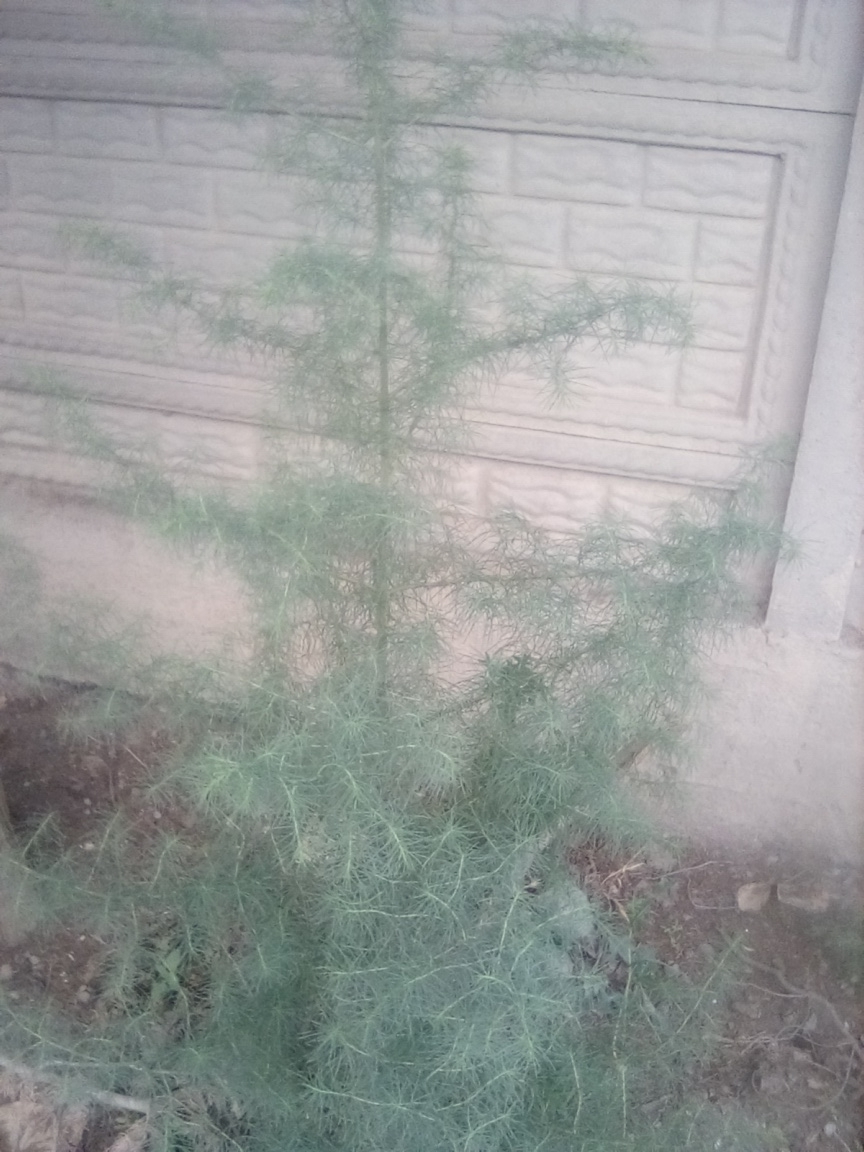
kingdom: Plantae
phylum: Tracheophyta
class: Liliopsida
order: Asparagales
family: Asparagaceae
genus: Asparagus
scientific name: Asparagus verticillatus
